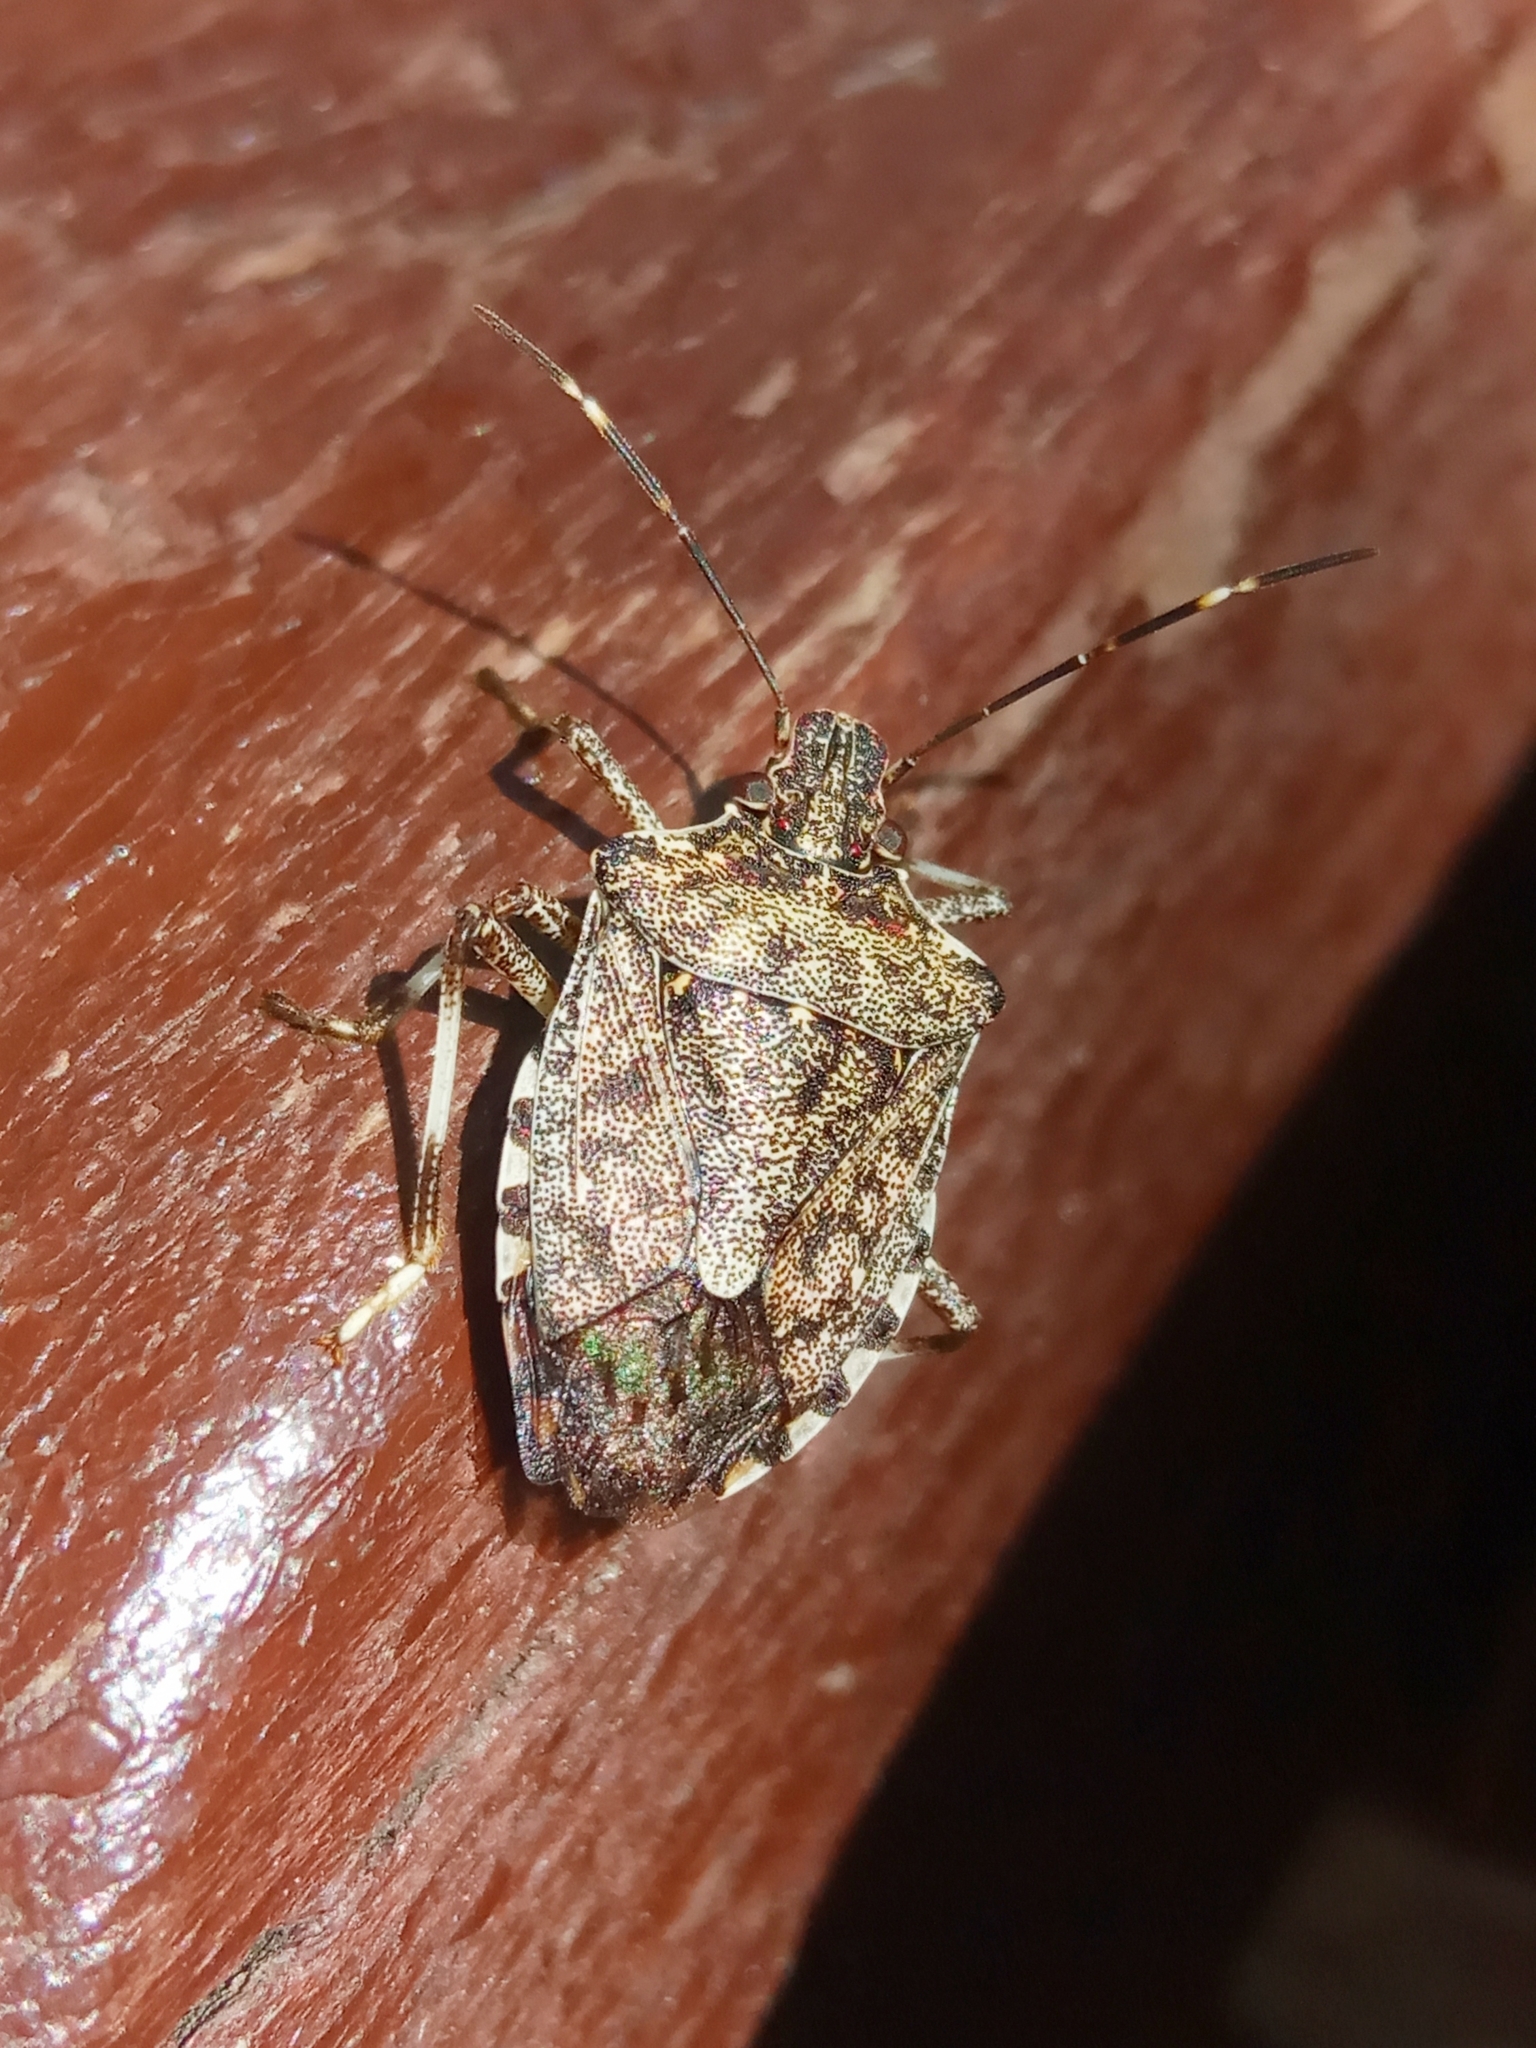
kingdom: Animalia
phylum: Arthropoda
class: Insecta
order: Hemiptera
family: Pentatomidae
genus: Halyomorpha
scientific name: Halyomorpha halys
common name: Brown marmorated stink bug
